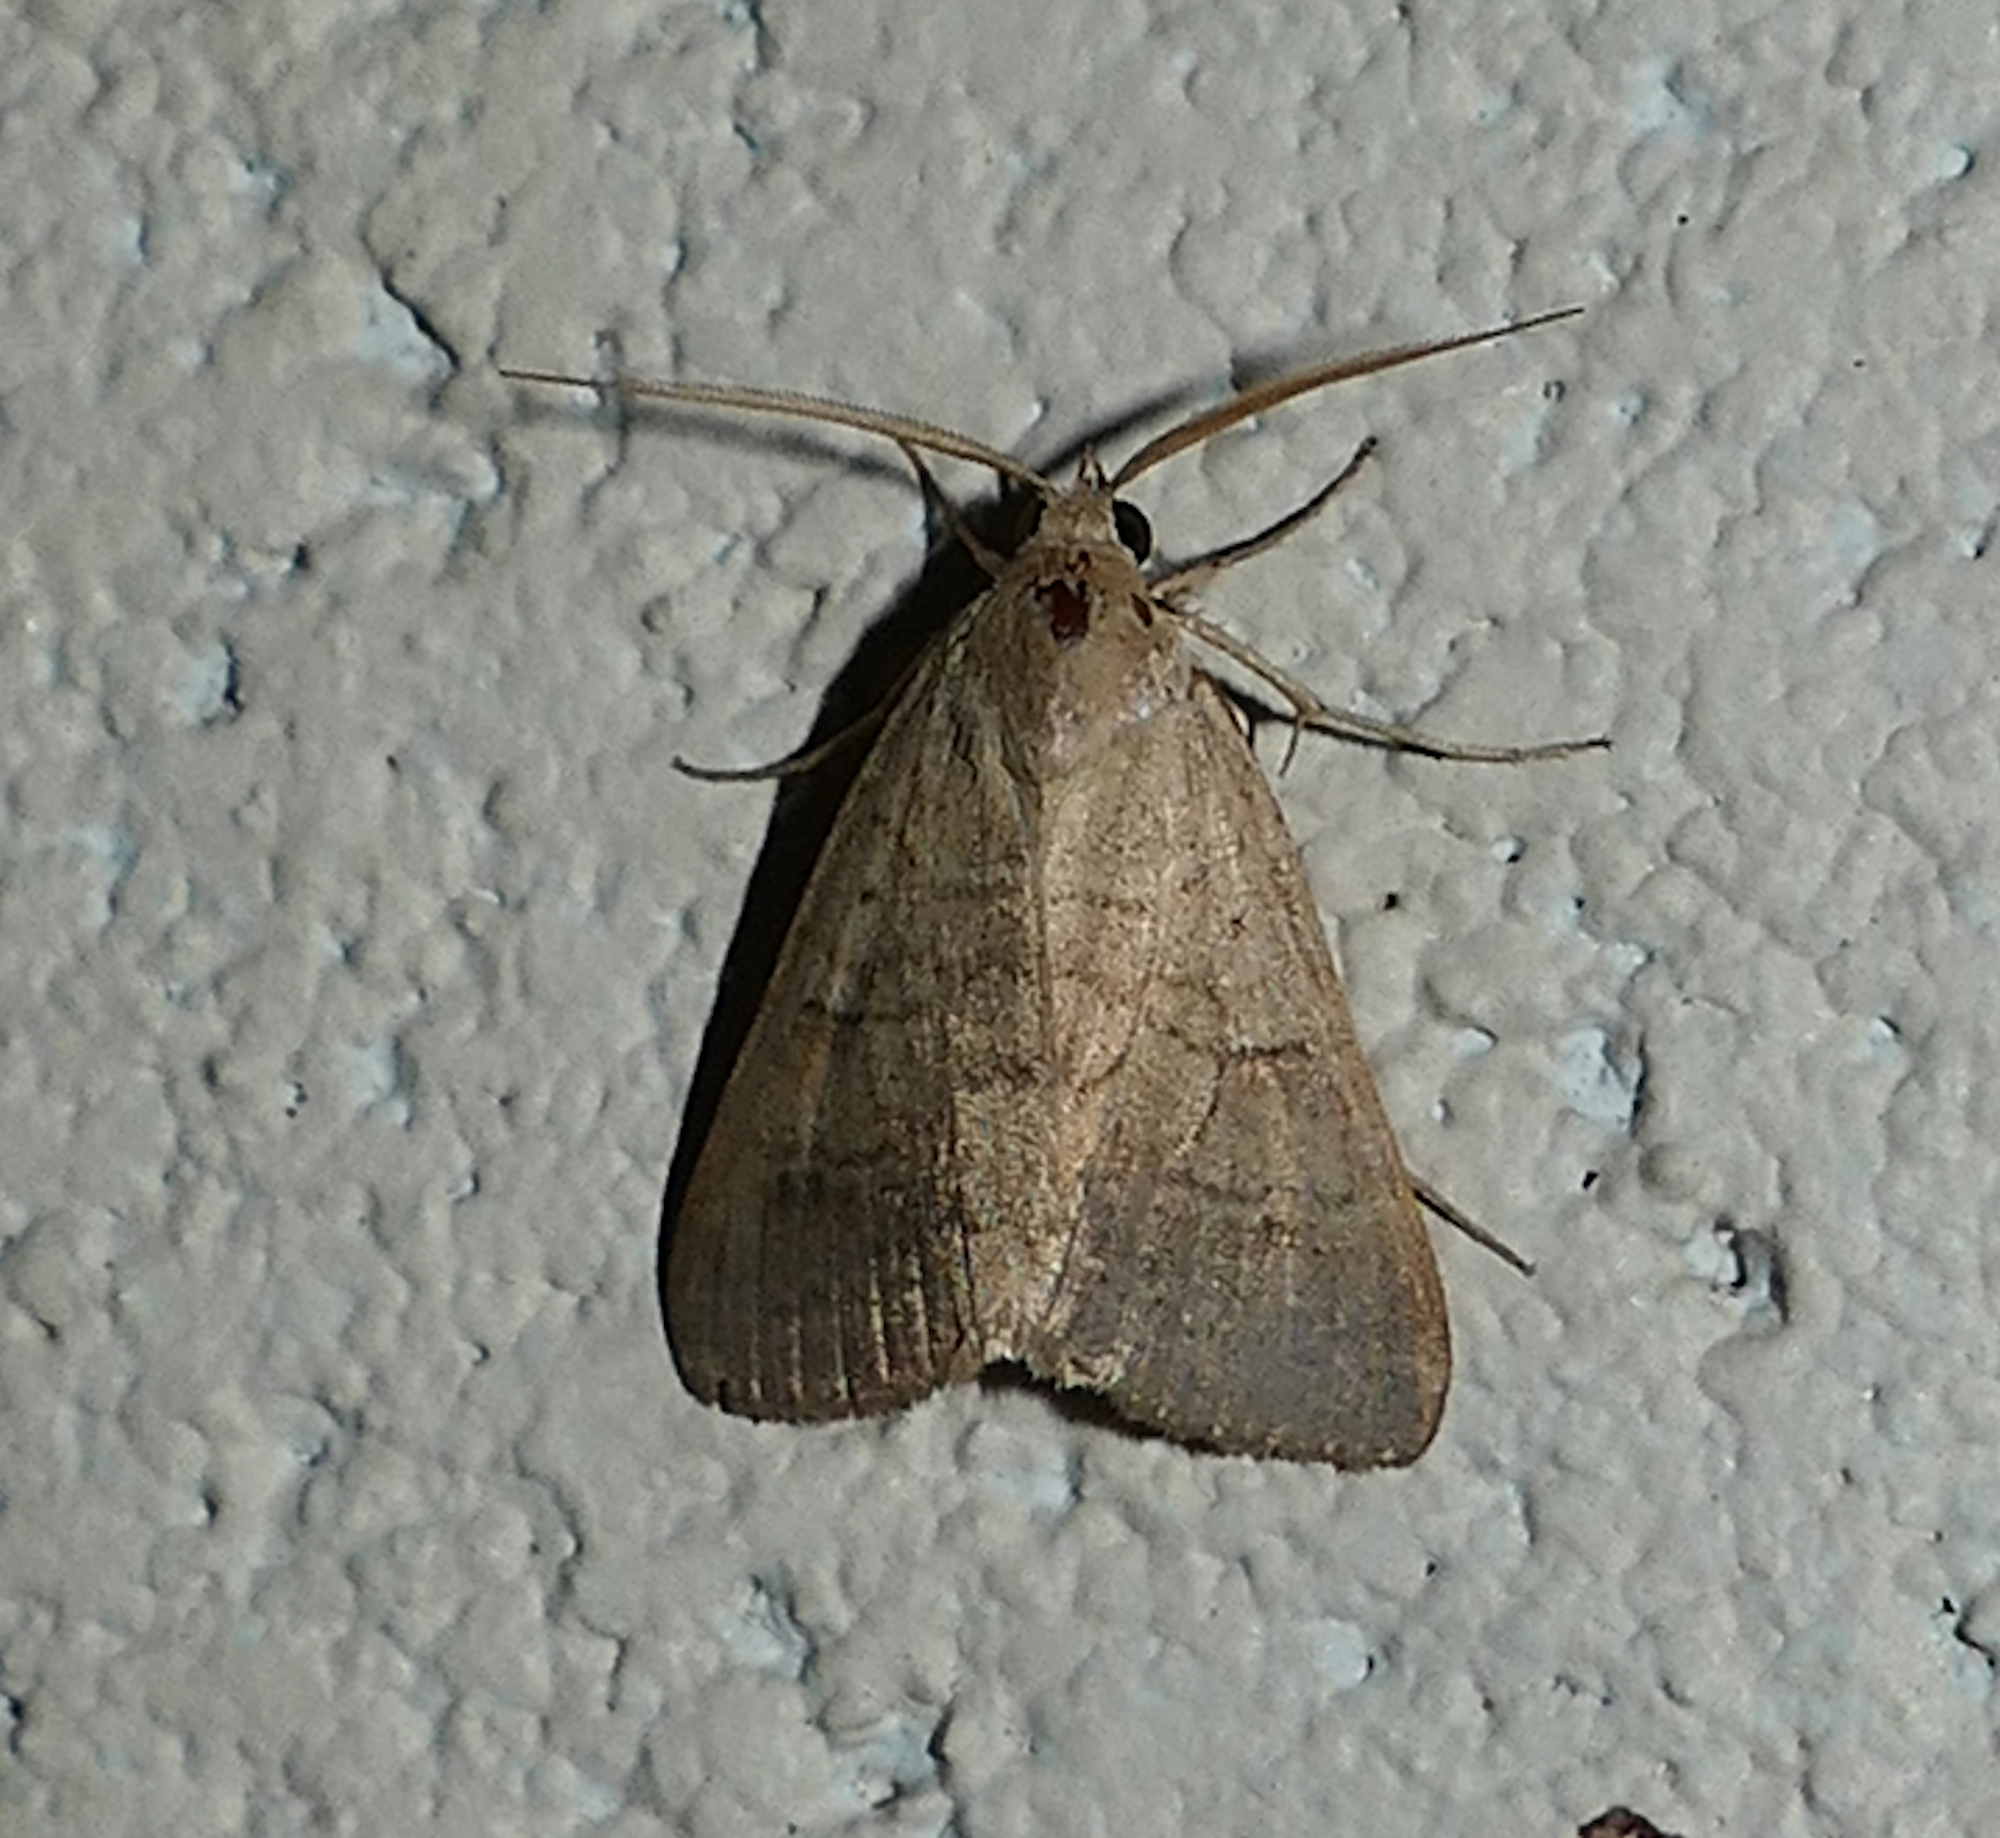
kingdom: Animalia
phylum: Arthropoda
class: Insecta
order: Lepidoptera
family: Erebidae
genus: Caenurgia
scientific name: Caenurgia chloropha
